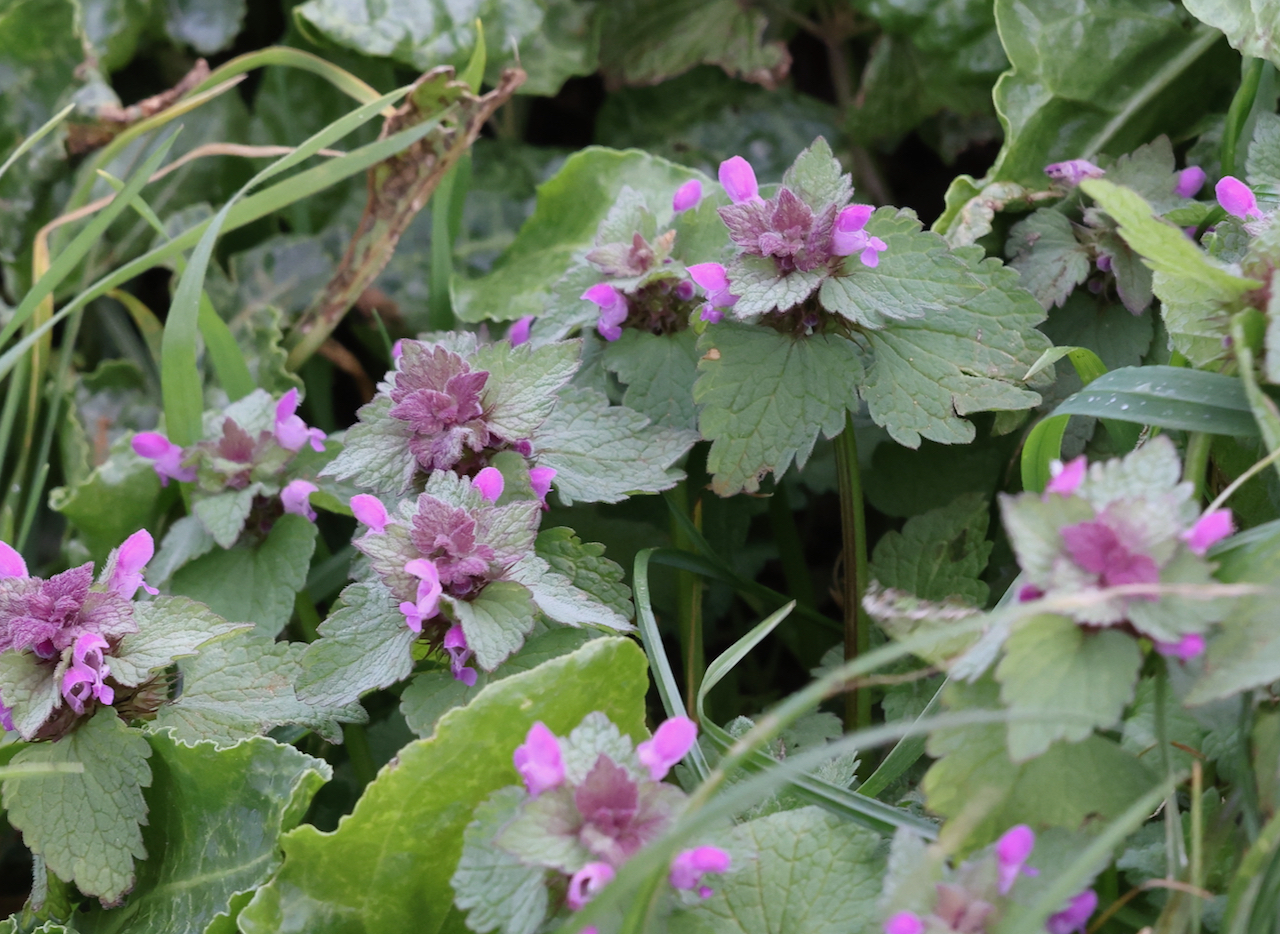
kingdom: Plantae
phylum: Tracheophyta
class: Magnoliopsida
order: Lamiales
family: Lamiaceae
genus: Lamium
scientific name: Lamium purpureum
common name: Red dead-nettle
